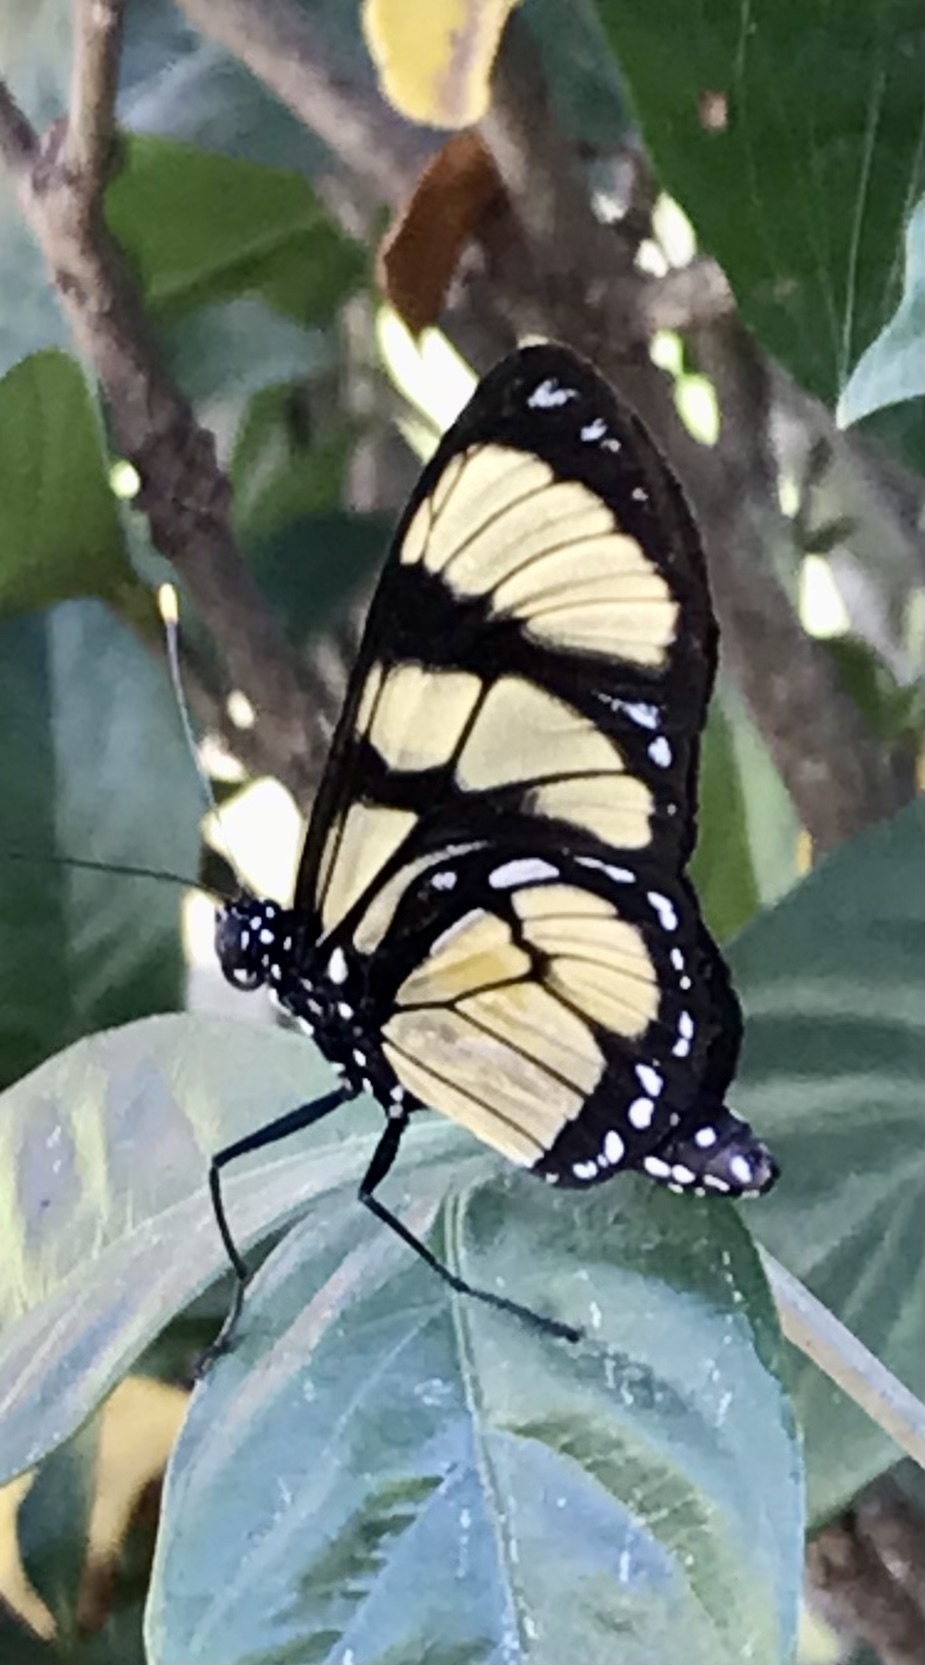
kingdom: Animalia
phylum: Arthropoda
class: Insecta
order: Lepidoptera
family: Nymphalidae
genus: Methona
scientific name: Methona themisto
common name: Themisto amberwing
